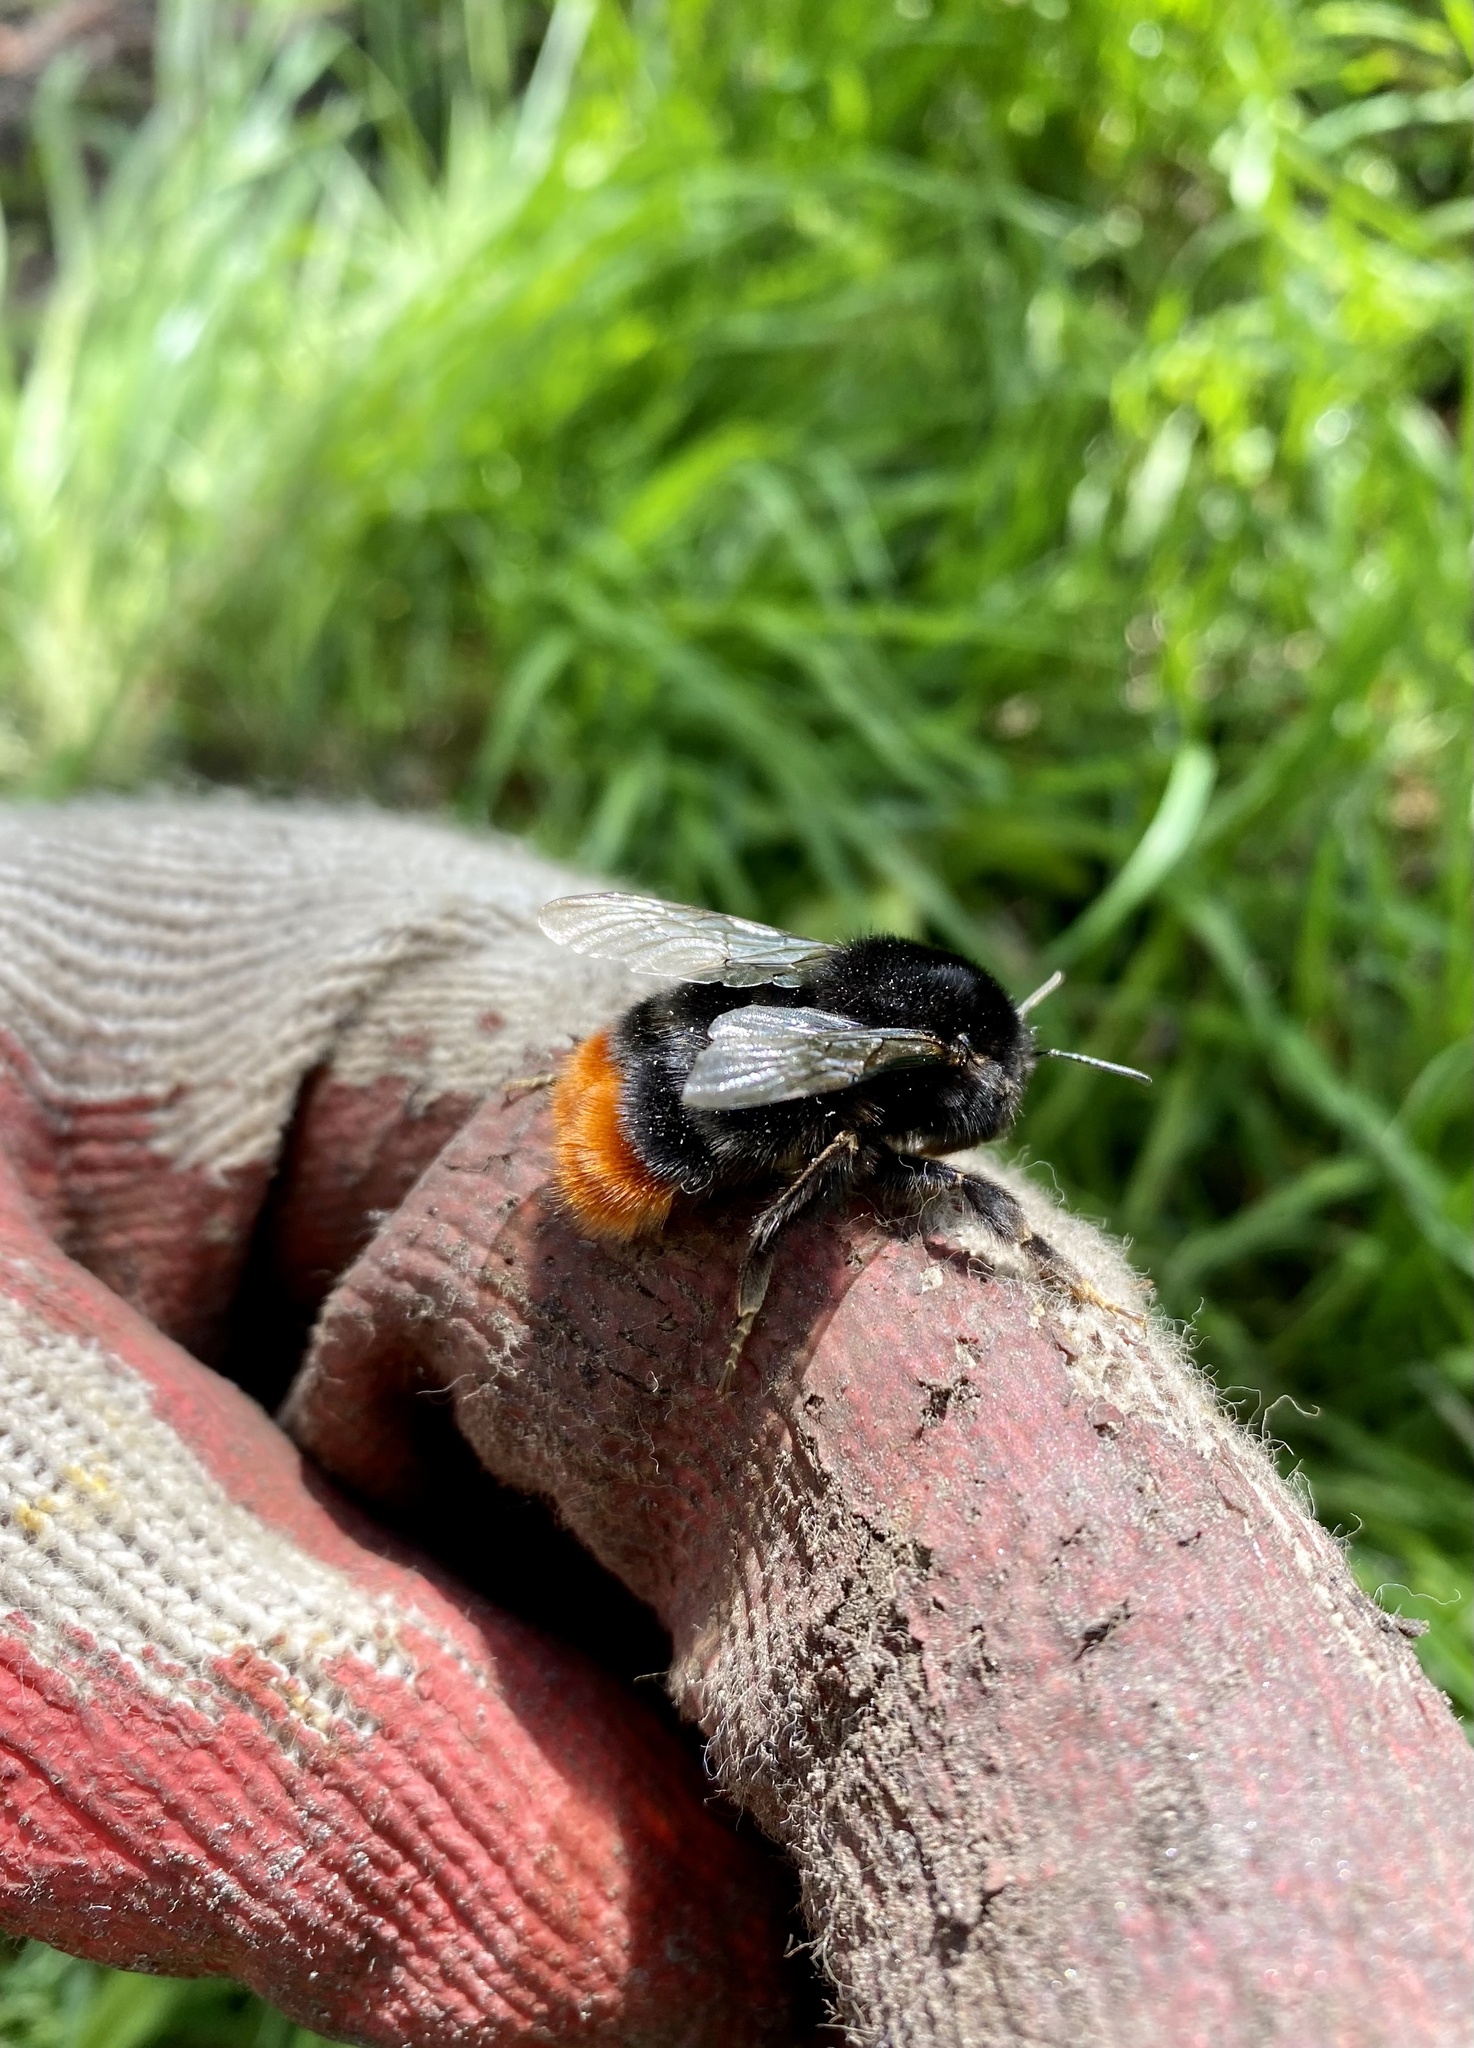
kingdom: Animalia
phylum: Arthropoda
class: Insecta
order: Hymenoptera
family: Apidae
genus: Bombus
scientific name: Bombus lapidarius
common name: Large red-tailed humble-bee
